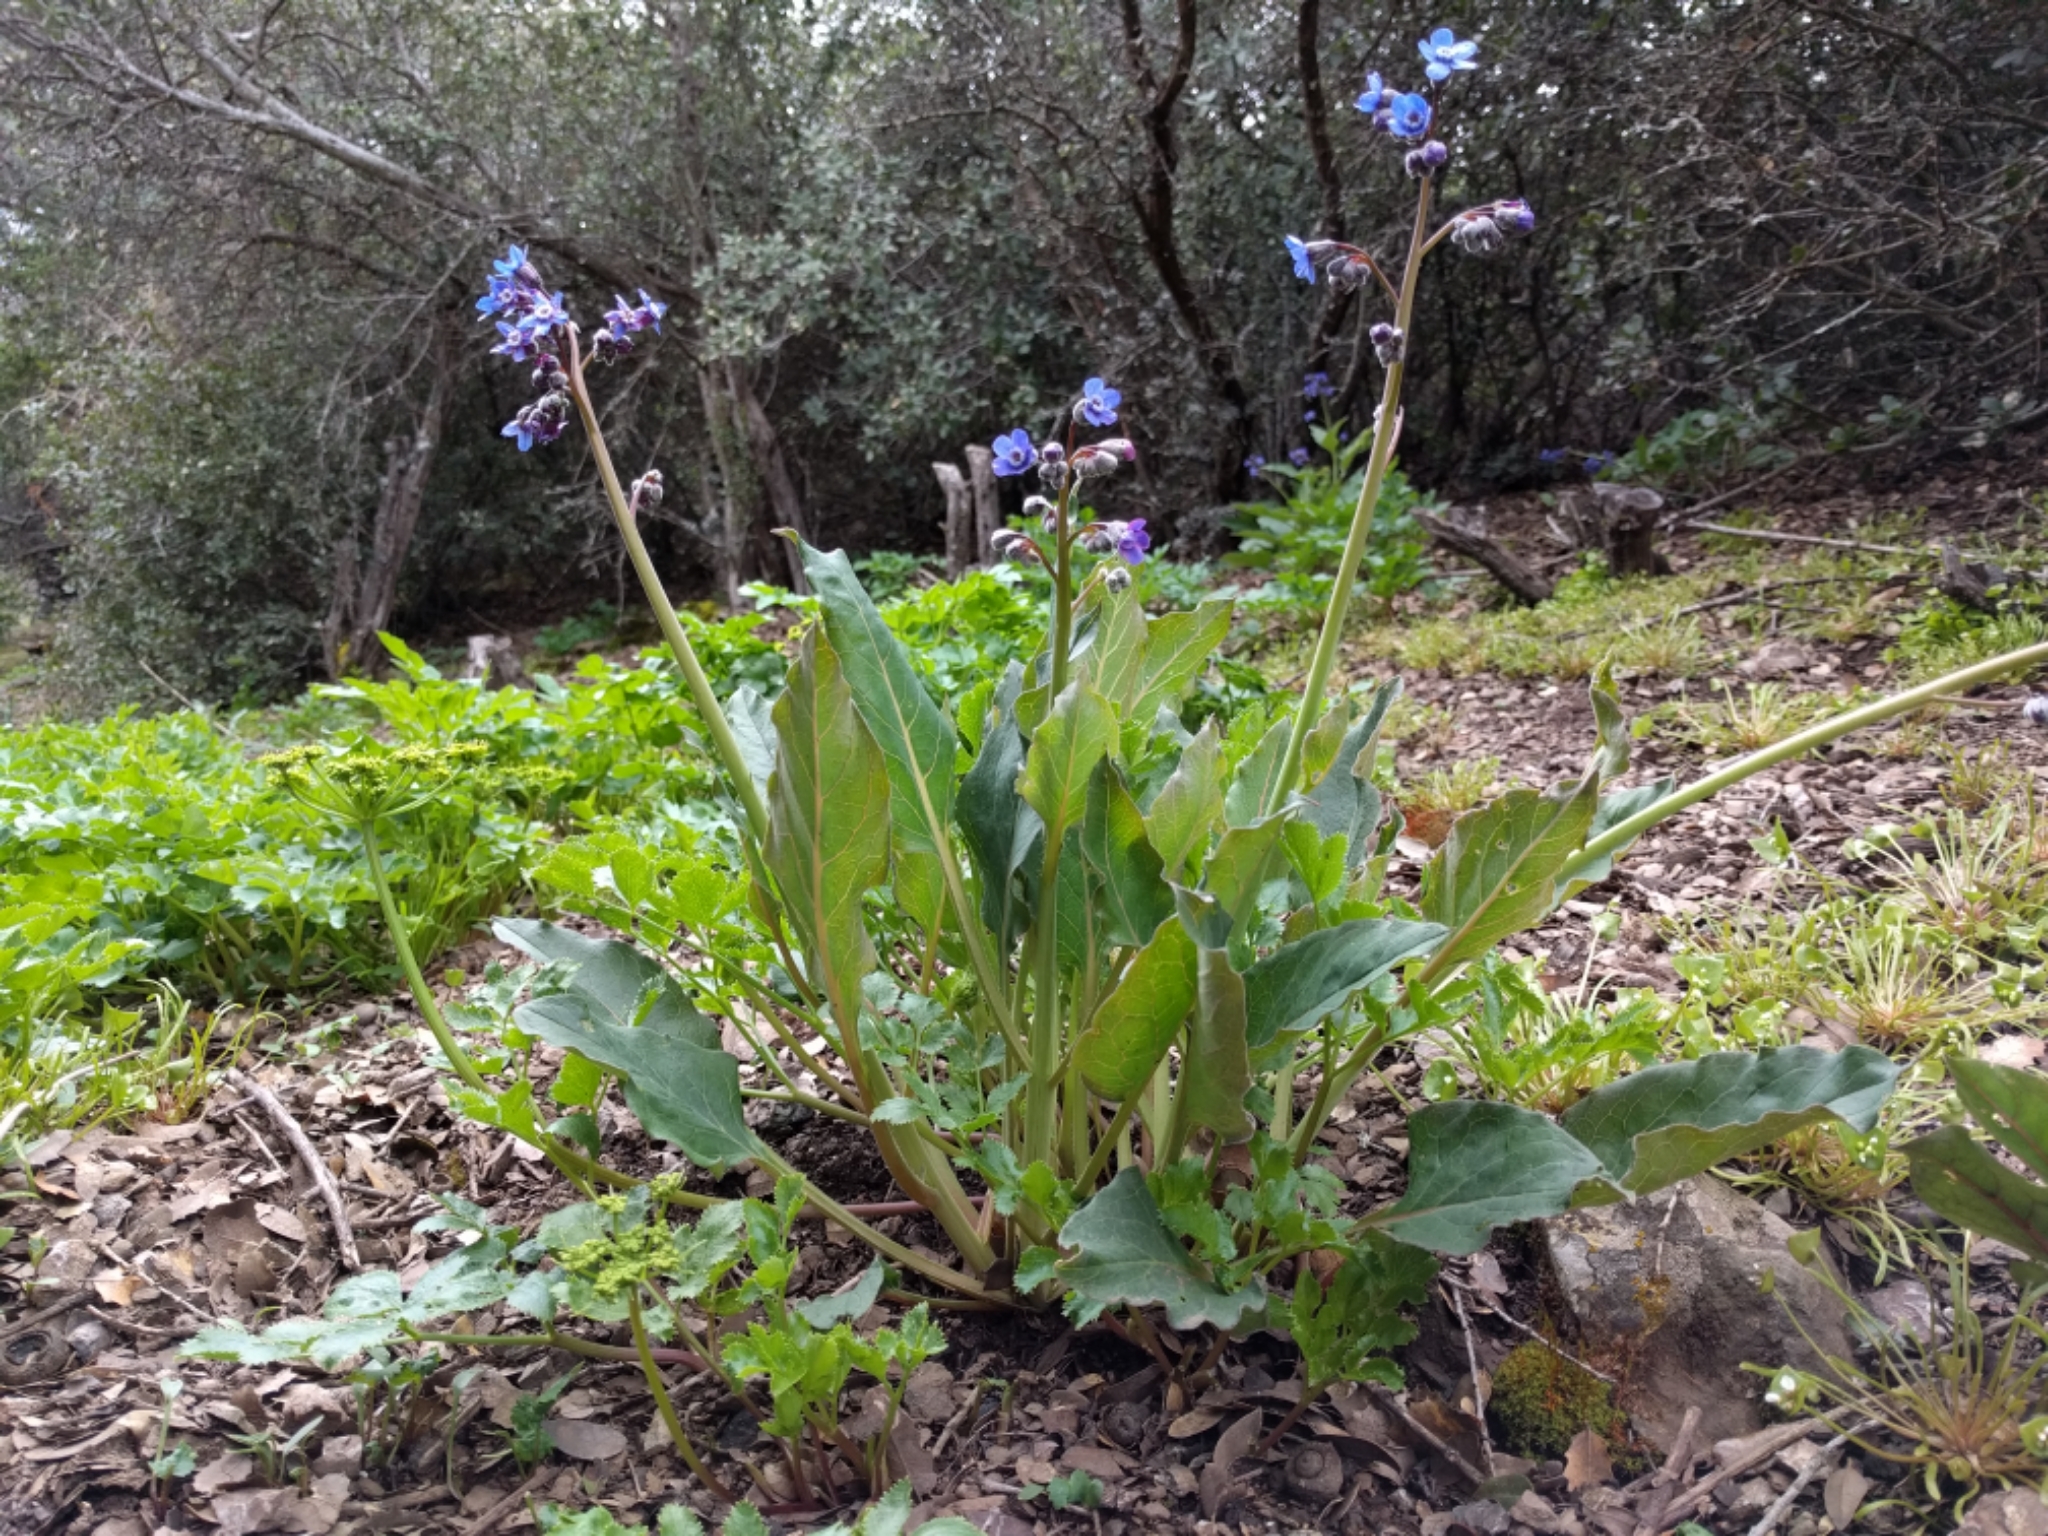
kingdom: Plantae
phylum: Tracheophyta
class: Magnoliopsida
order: Boraginales
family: Boraginaceae
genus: Adelinia
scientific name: Adelinia grande
